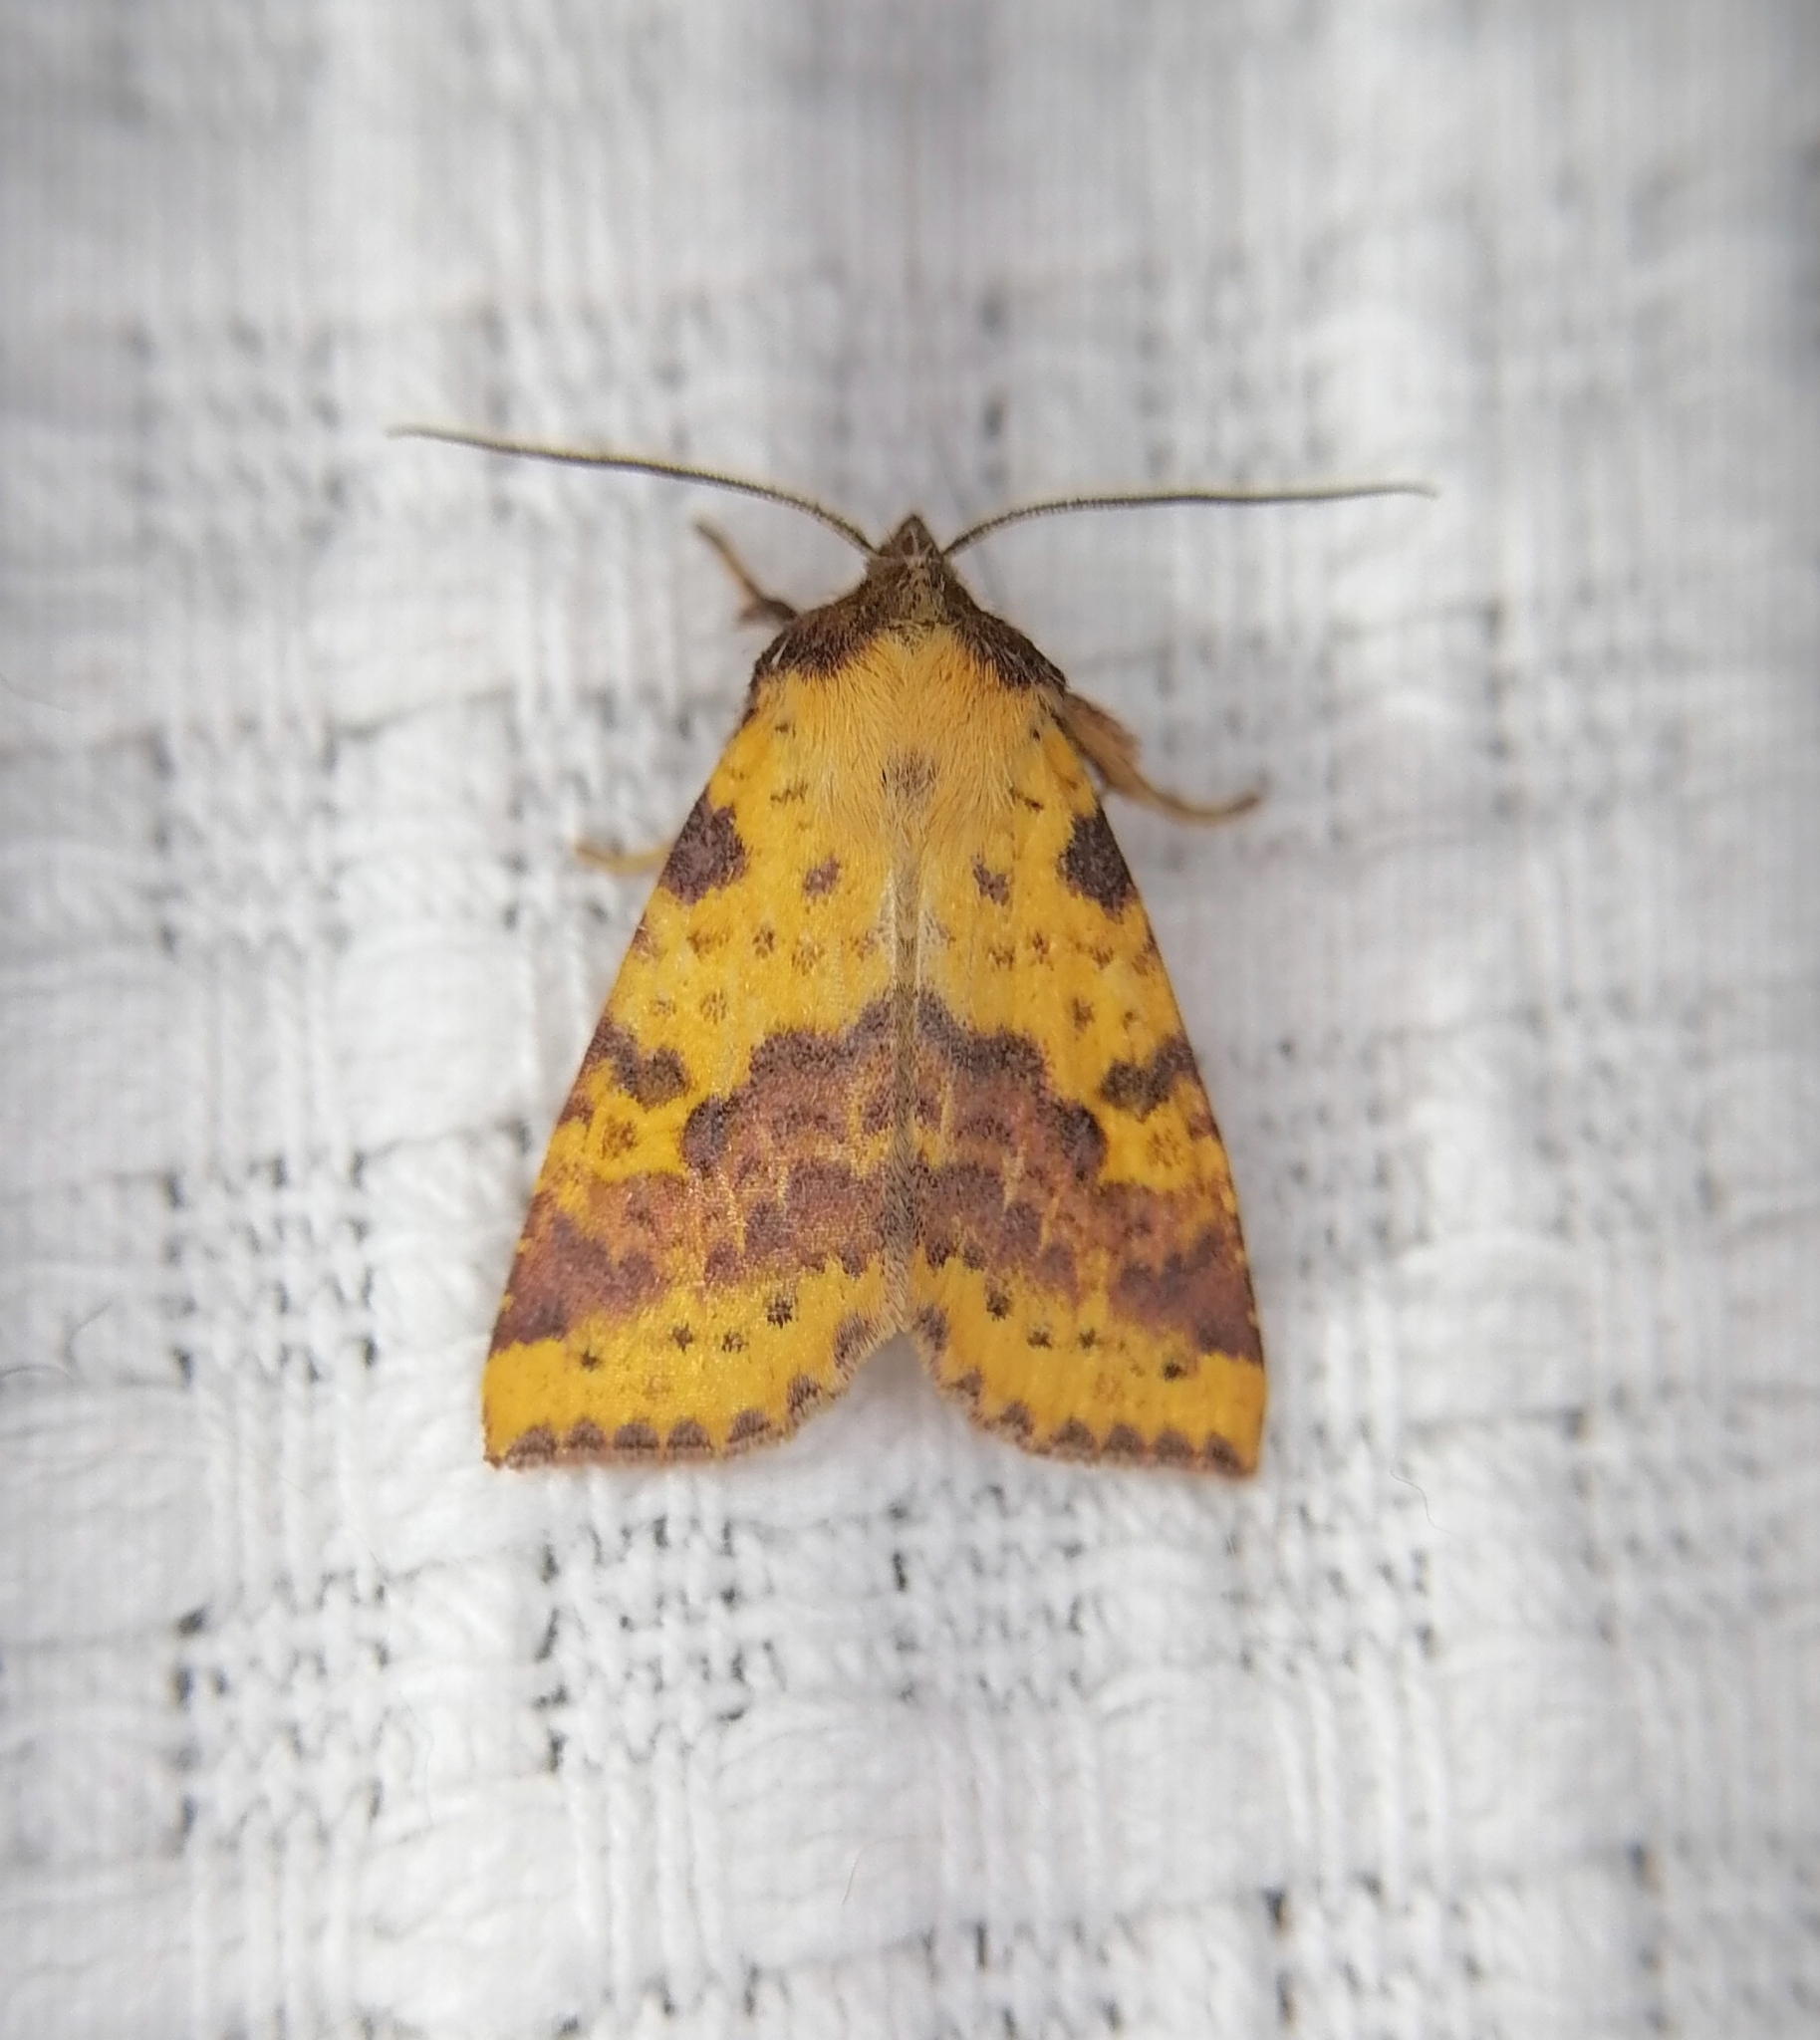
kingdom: Animalia
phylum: Arthropoda
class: Insecta
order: Lepidoptera
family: Noctuidae
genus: Xanthia
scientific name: Xanthia togata
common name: Pink-barred sallow
